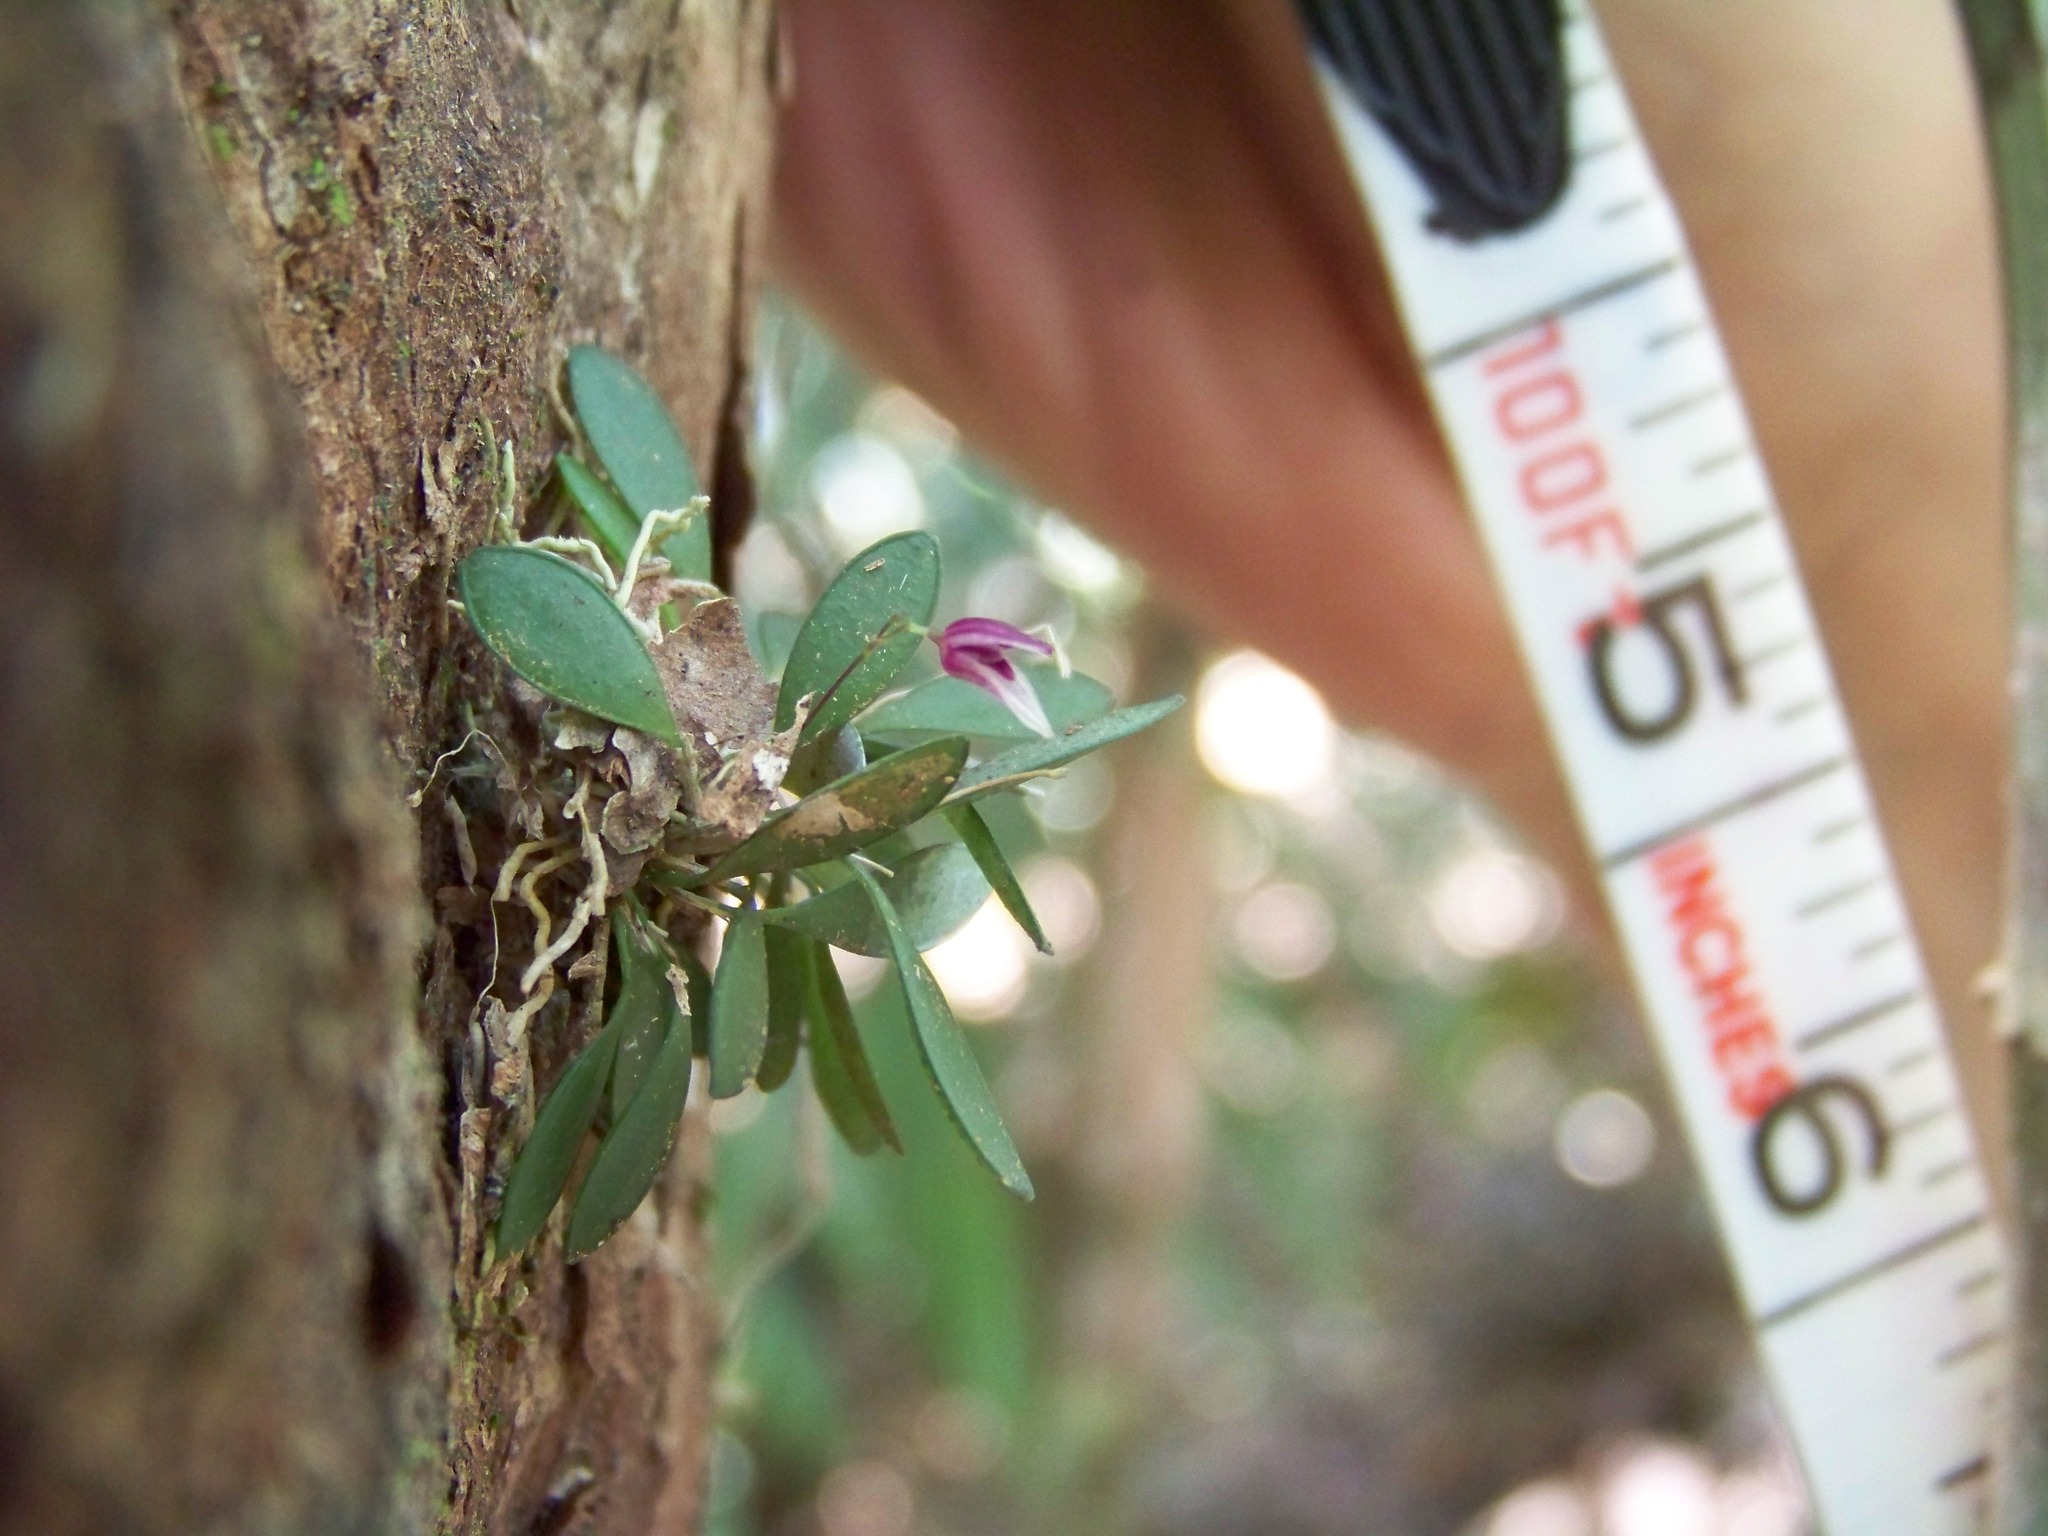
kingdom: Plantae
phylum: Tracheophyta
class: Liliopsida
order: Asparagales
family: Orchidaceae
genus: Specklinia
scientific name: Specklinia pisinna
